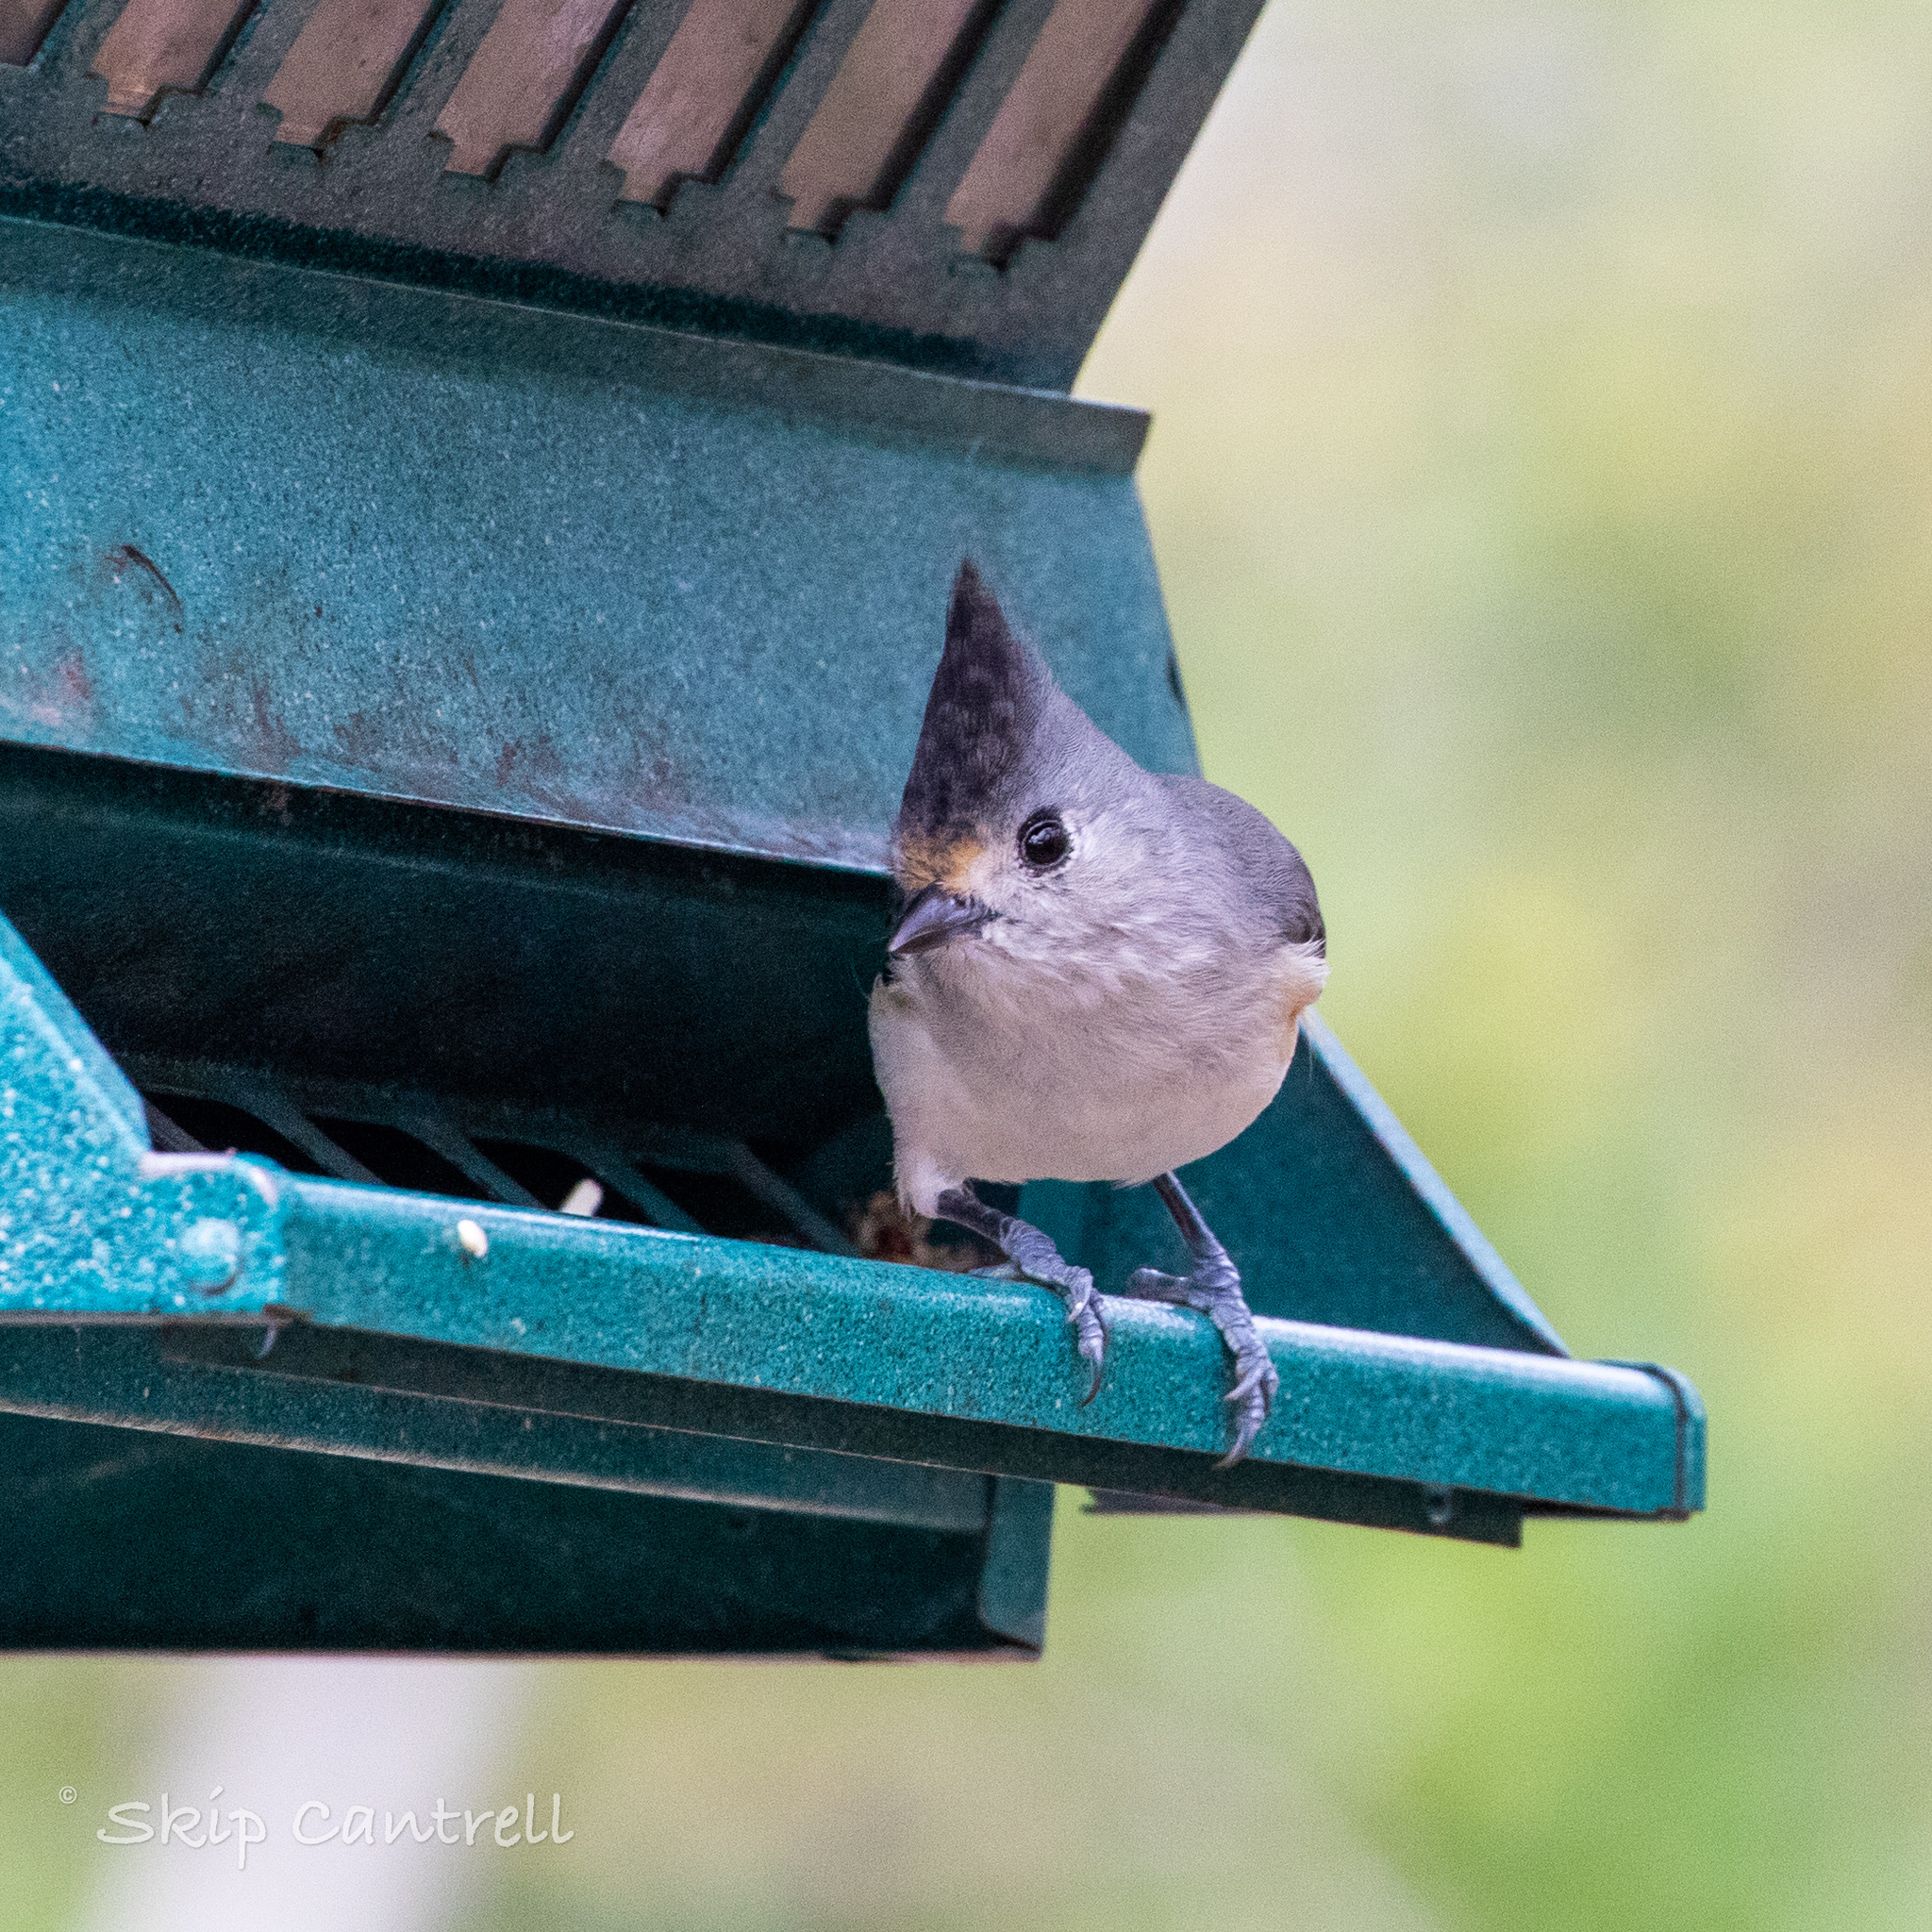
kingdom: Animalia
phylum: Chordata
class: Aves
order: Passeriformes
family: Paridae
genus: Baeolophus
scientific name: Baeolophus atricristatus
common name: Black-crested titmouse
